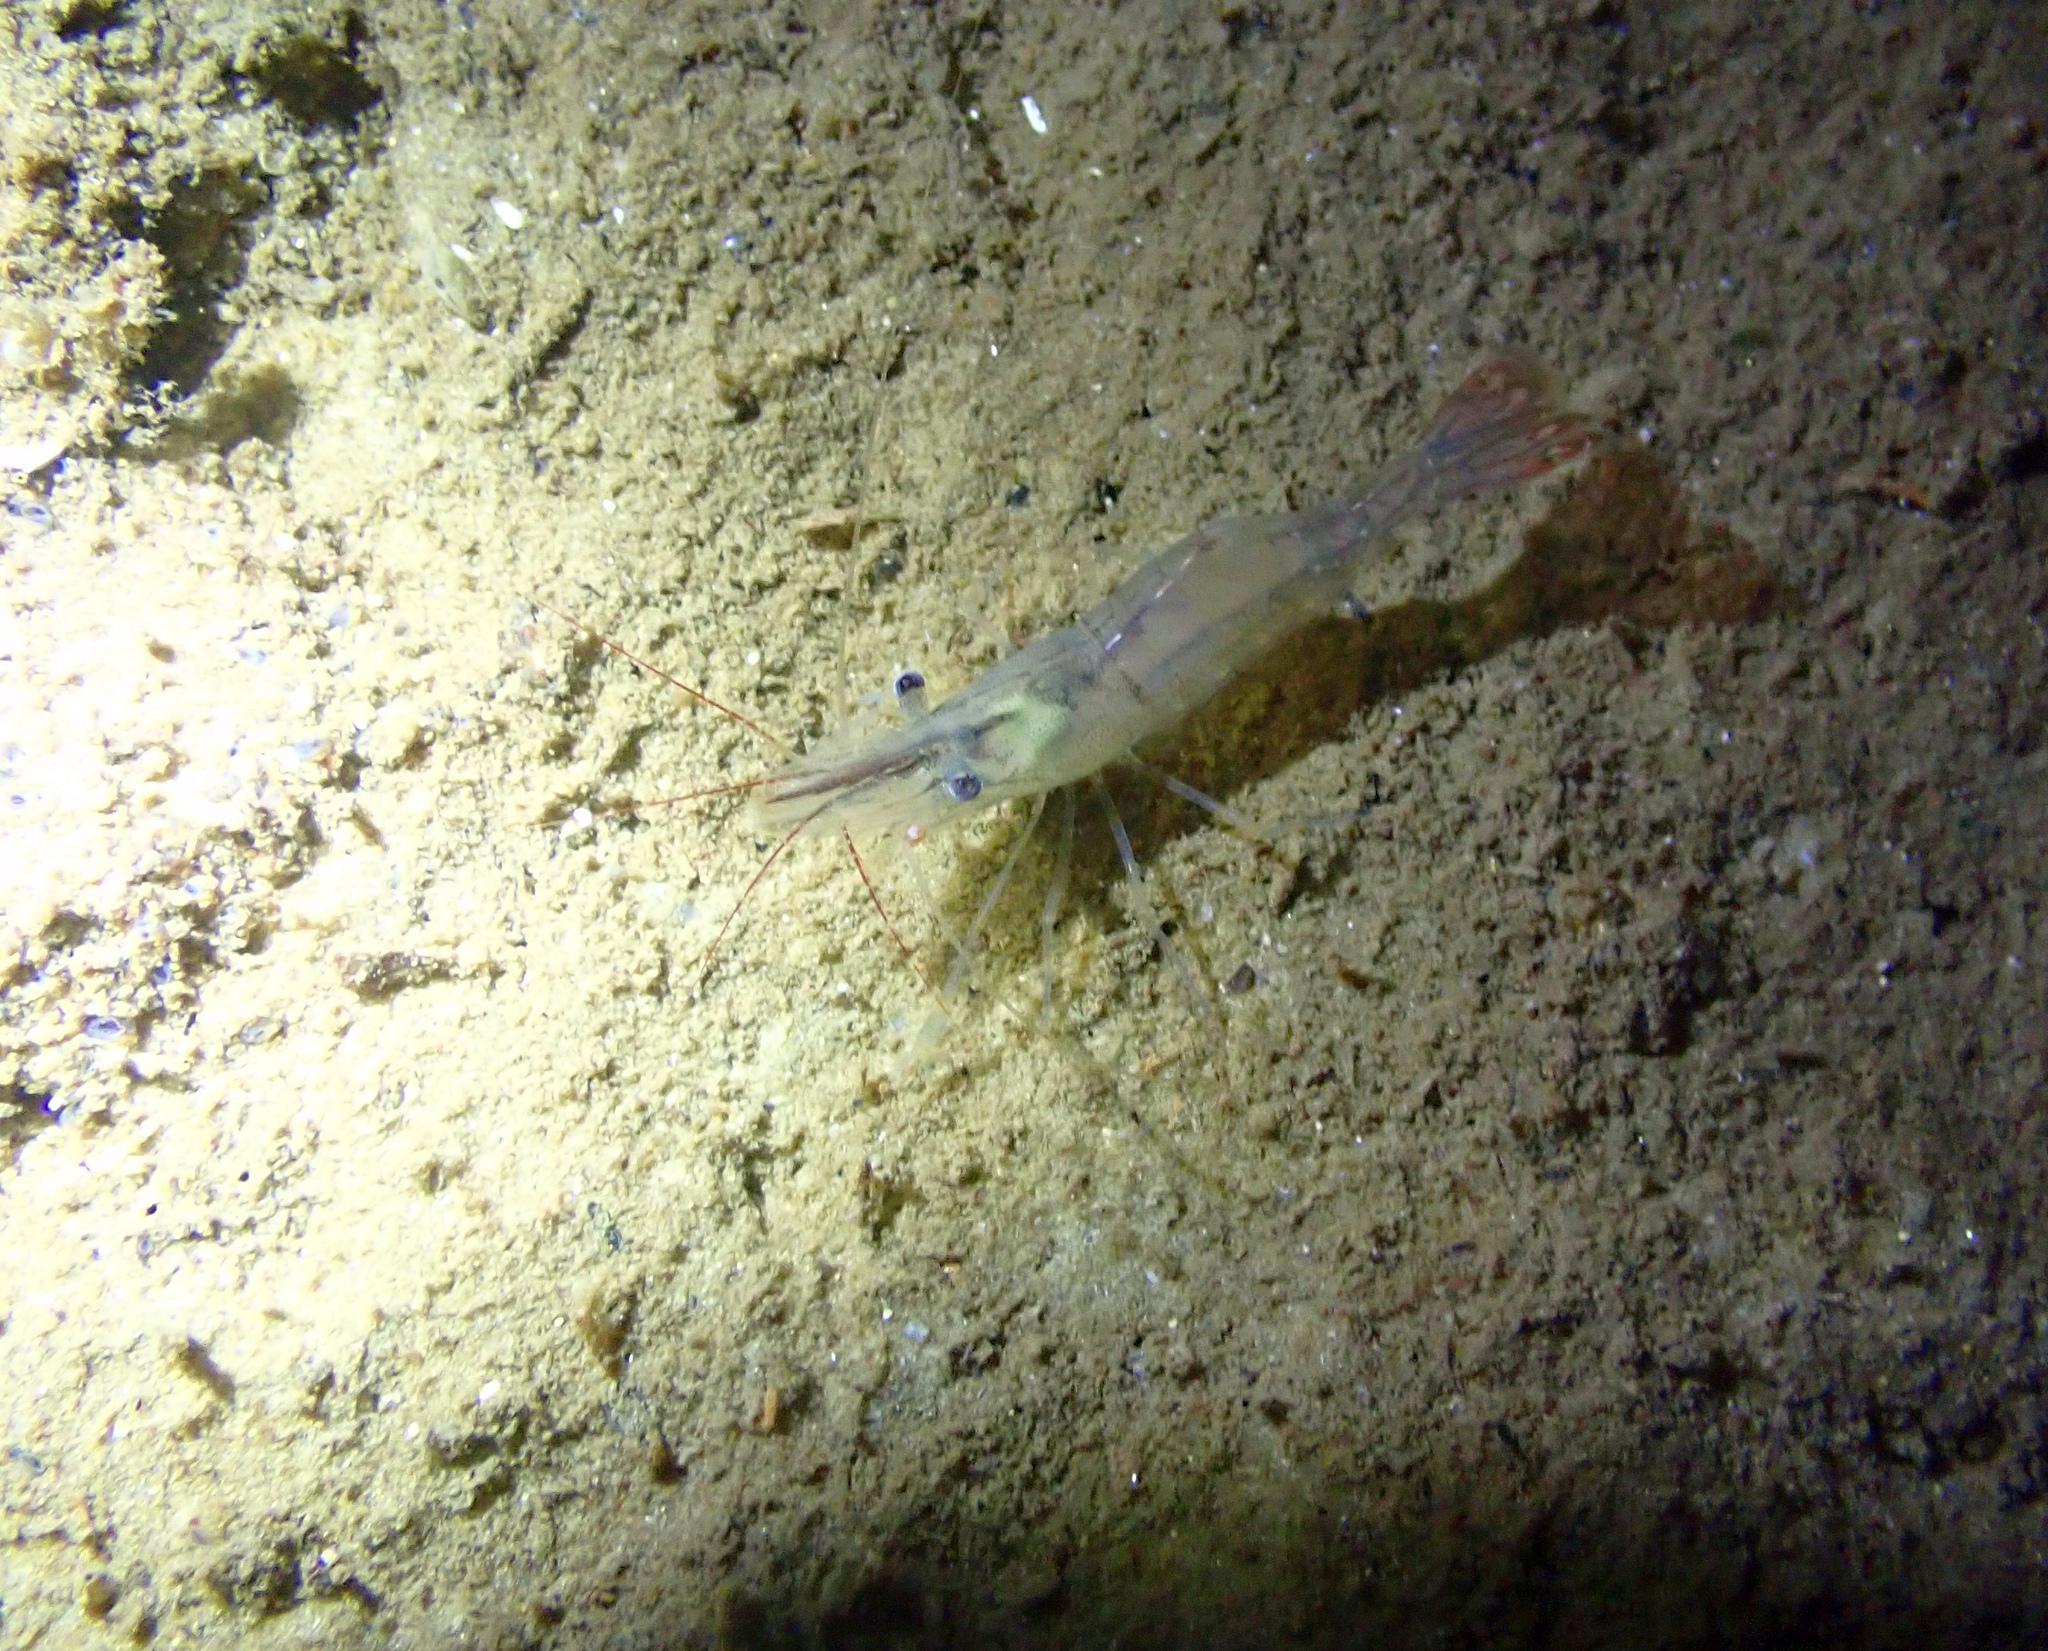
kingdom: Animalia
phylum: Arthropoda
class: Malacostraca
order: Decapoda
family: Palaemonidae
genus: Palaemon
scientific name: Palaemon adspersus
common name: Baltic prawn
